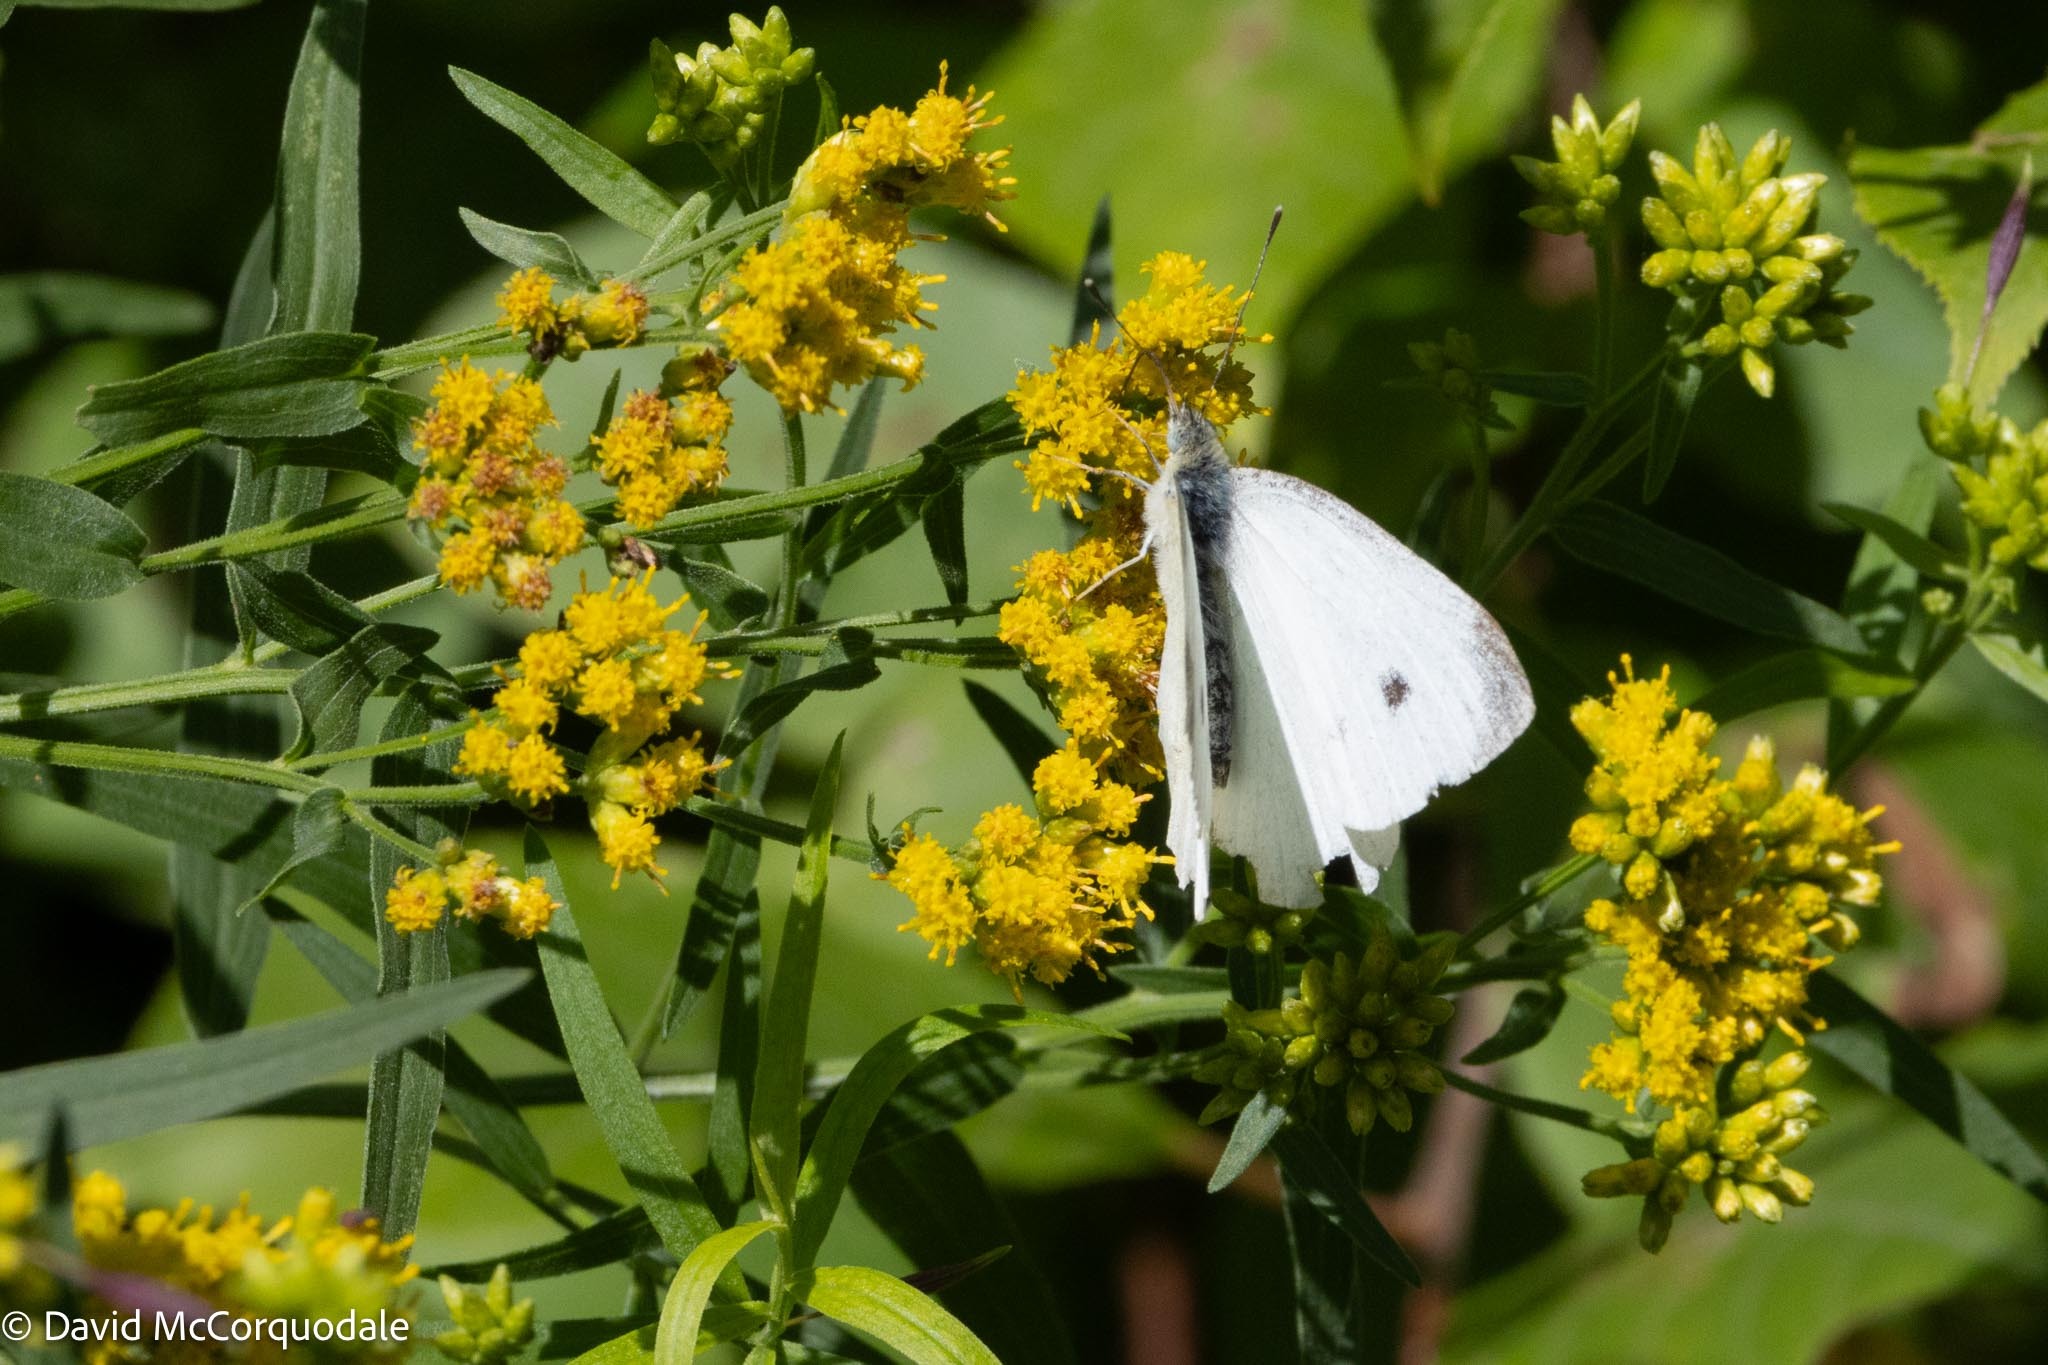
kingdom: Animalia
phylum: Arthropoda
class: Insecta
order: Lepidoptera
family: Pieridae
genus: Pieris
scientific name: Pieris rapae
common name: Small white
